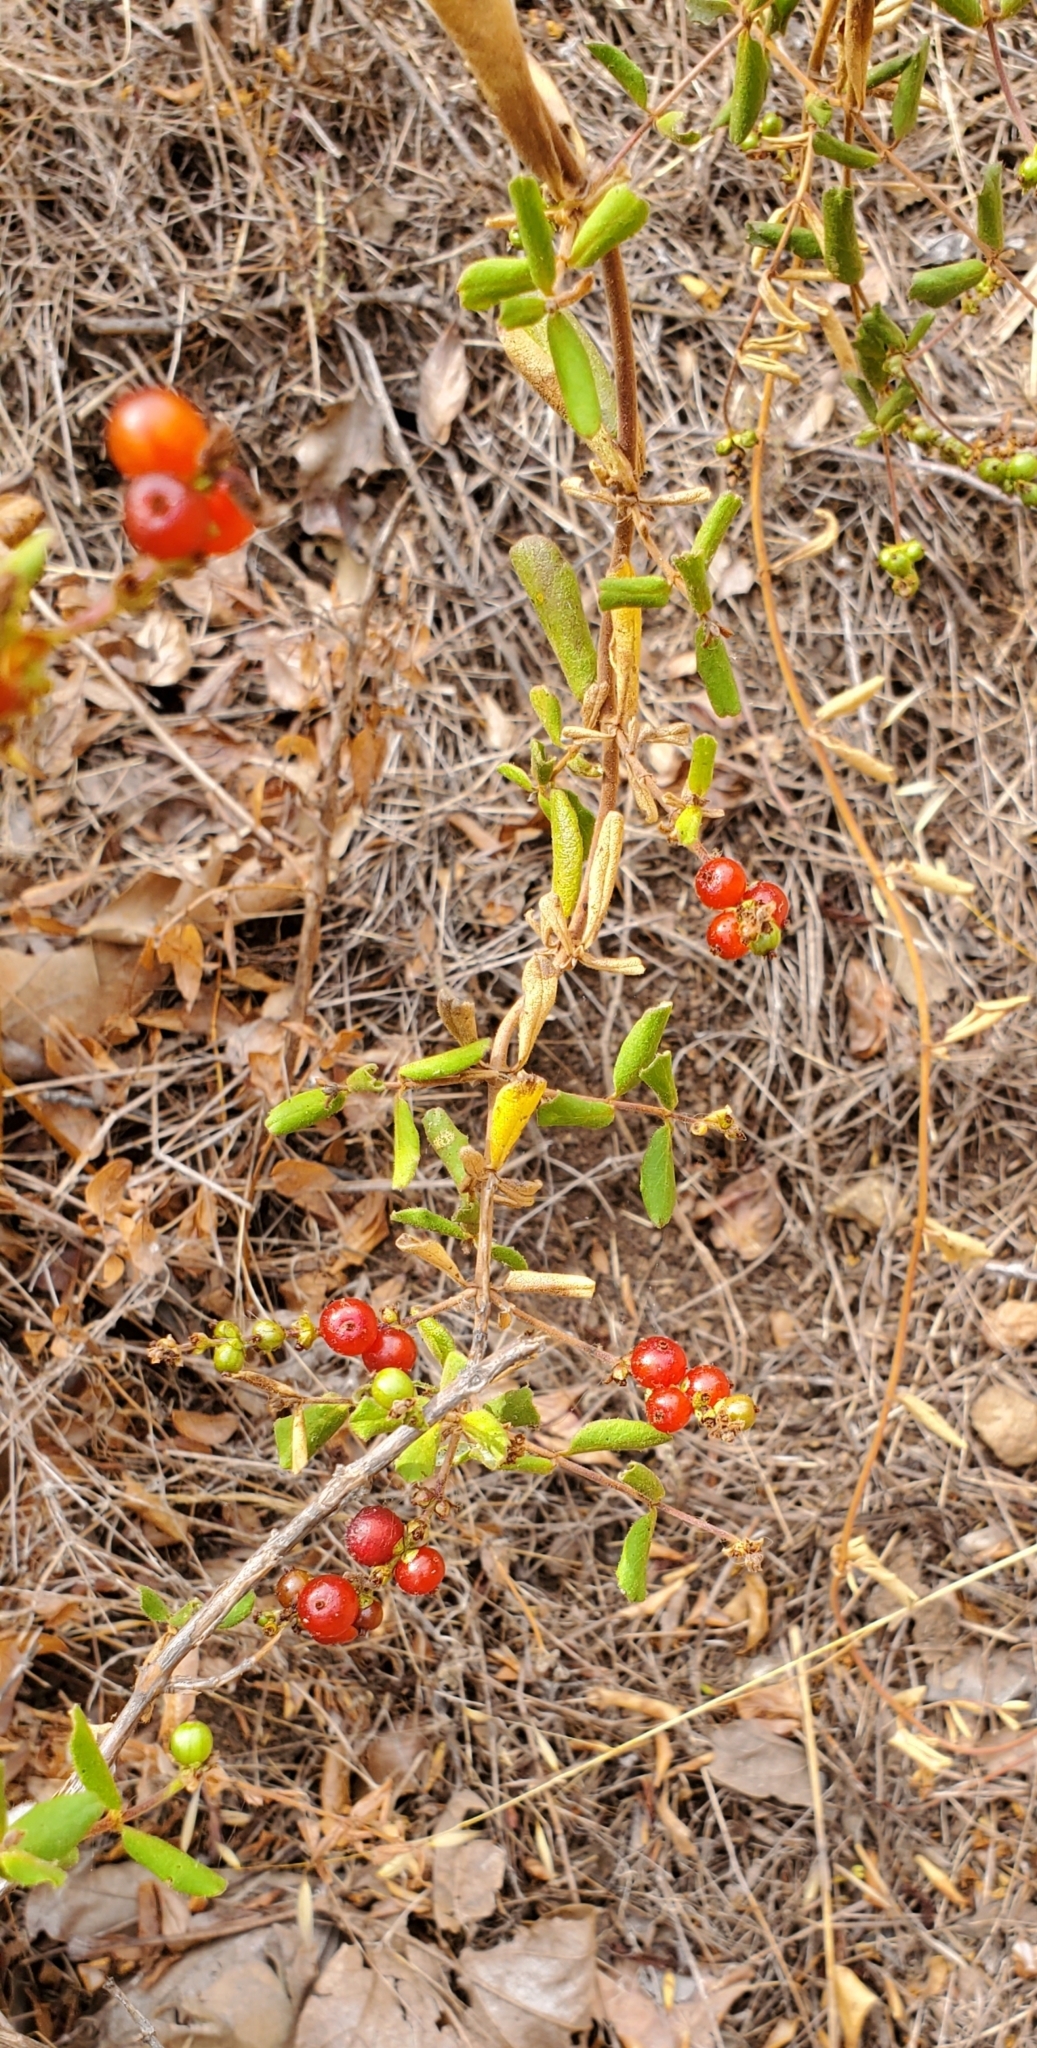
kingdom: Plantae
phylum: Tracheophyta
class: Magnoliopsida
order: Dipsacales
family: Caprifoliaceae
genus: Lonicera
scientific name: Lonicera subspicata
